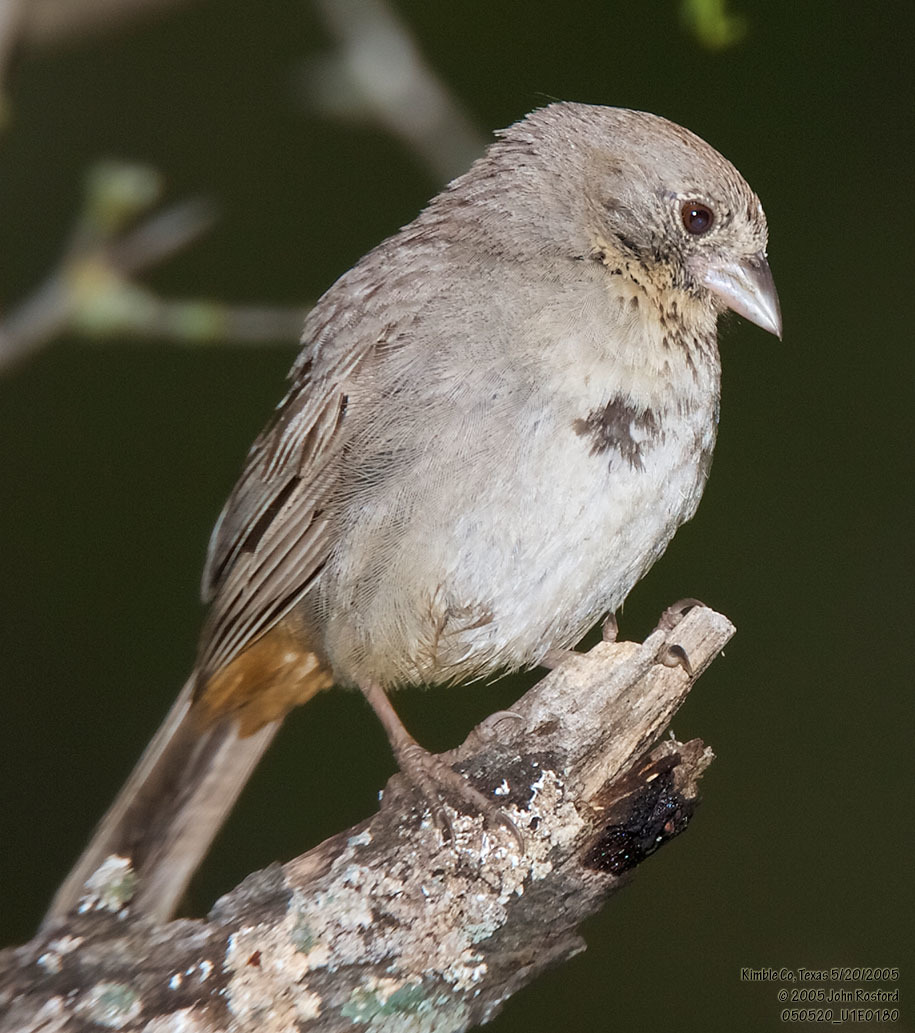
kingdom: Animalia
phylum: Chordata
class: Aves
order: Passeriformes
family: Passerellidae
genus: Melozone
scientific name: Melozone fusca
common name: Canyon towhee
